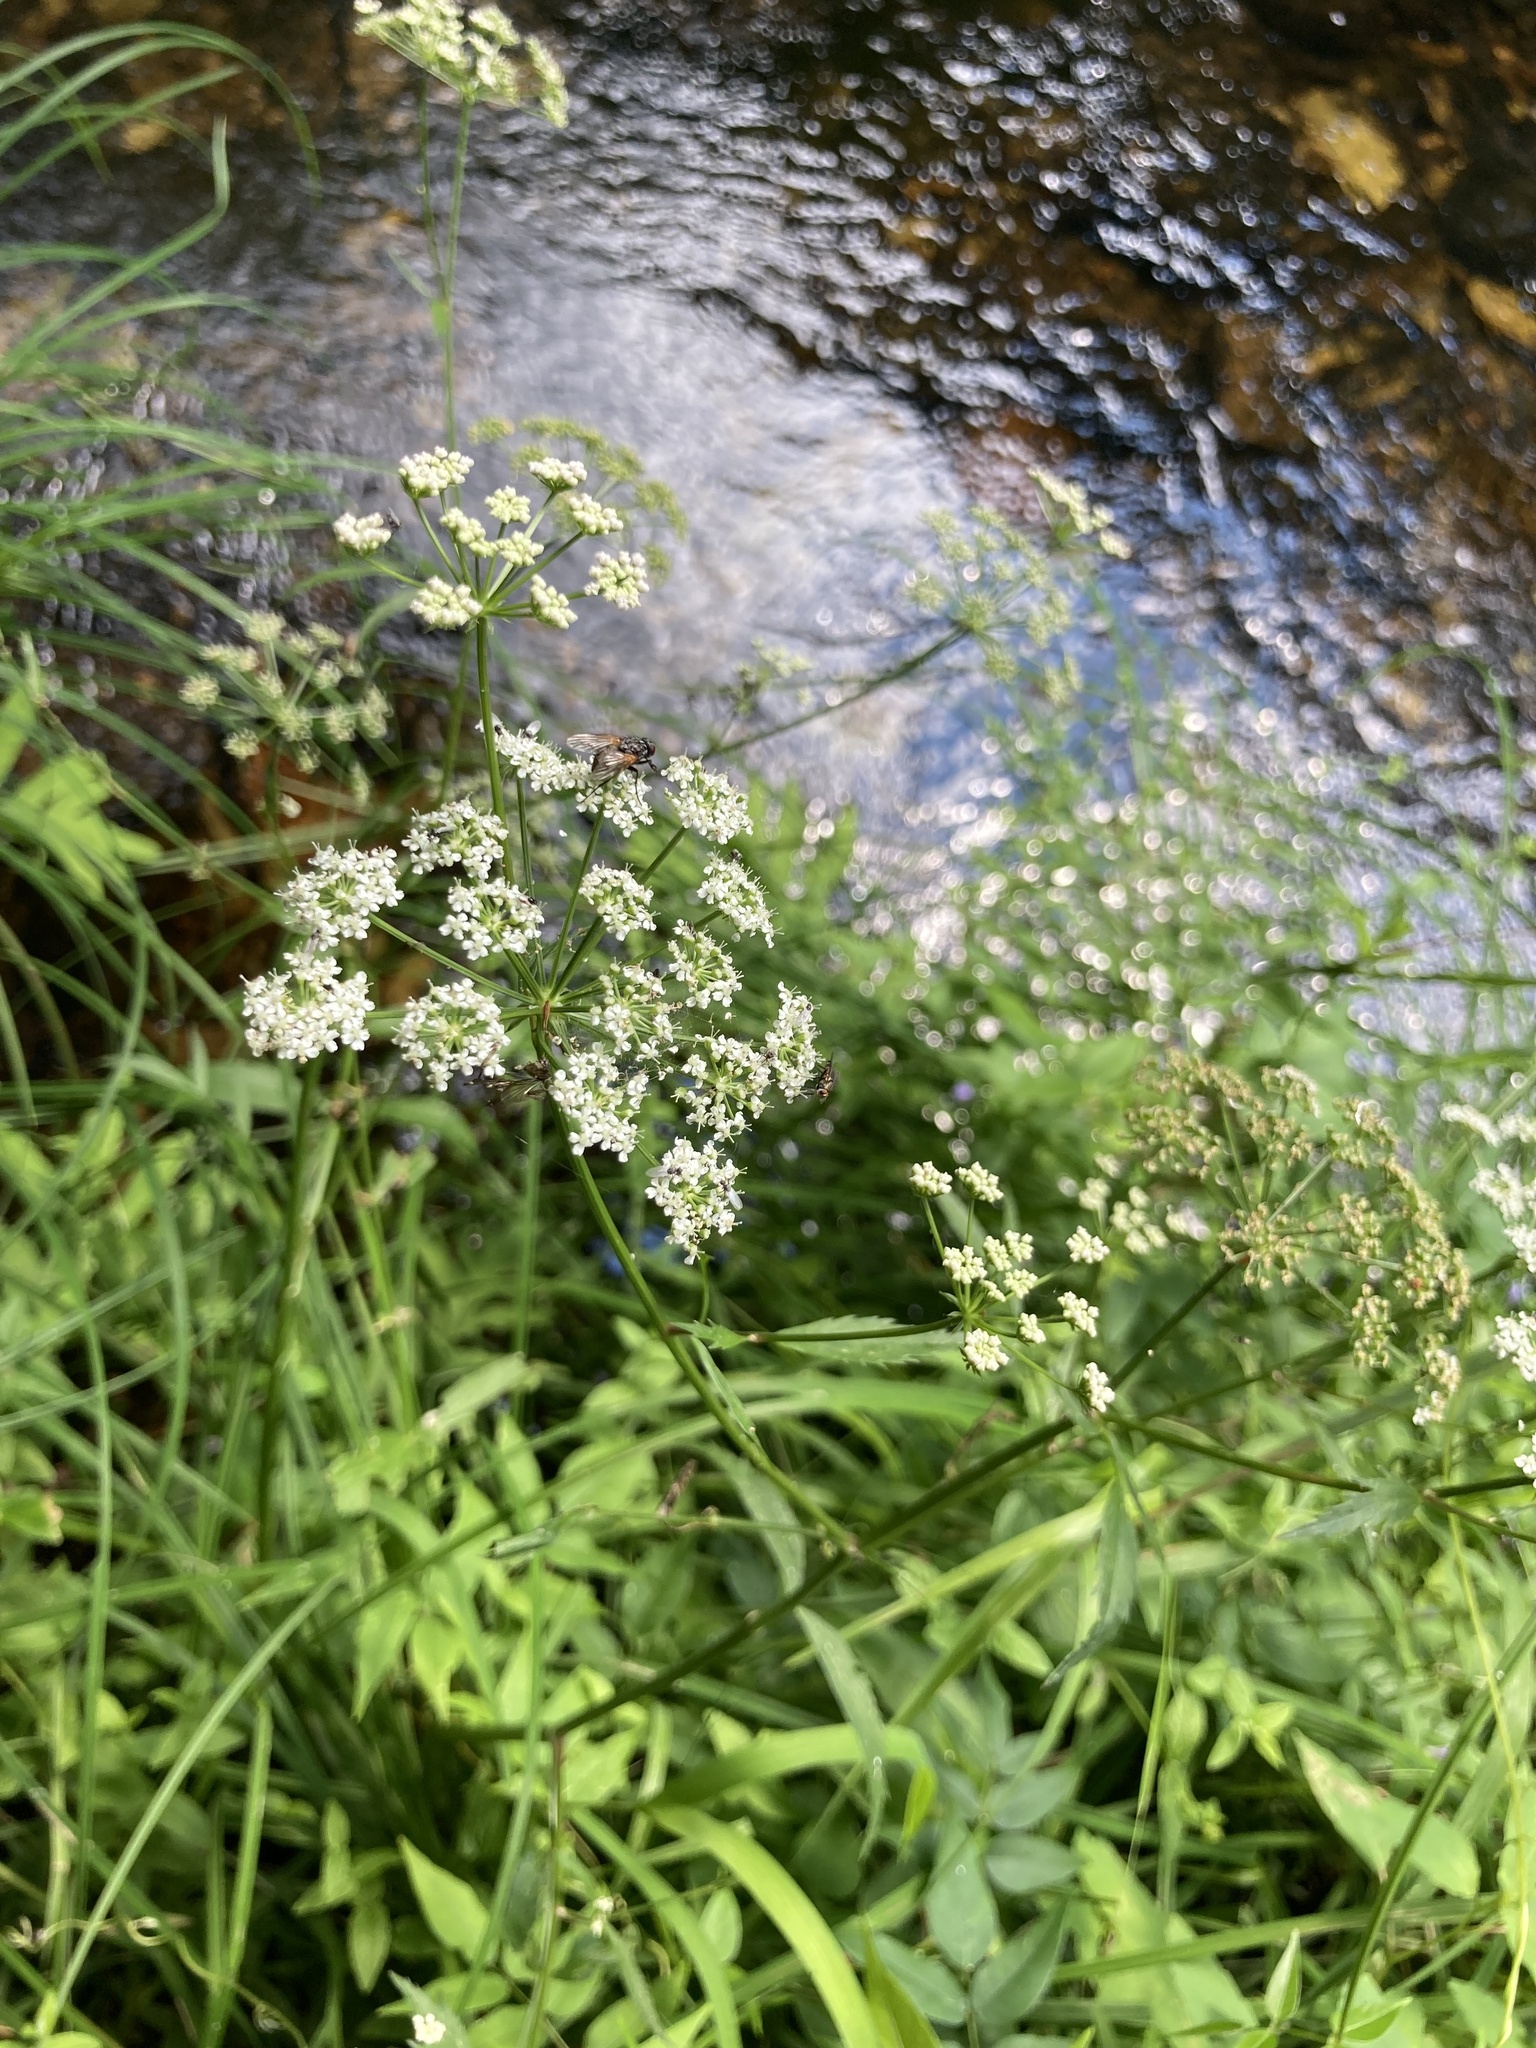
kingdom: Plantae
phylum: Tracheophyta
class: Magnoliopsida
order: Apiales
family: Apiaceae
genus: Sium
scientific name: Sium suave
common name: Hemlock water-parsnip
